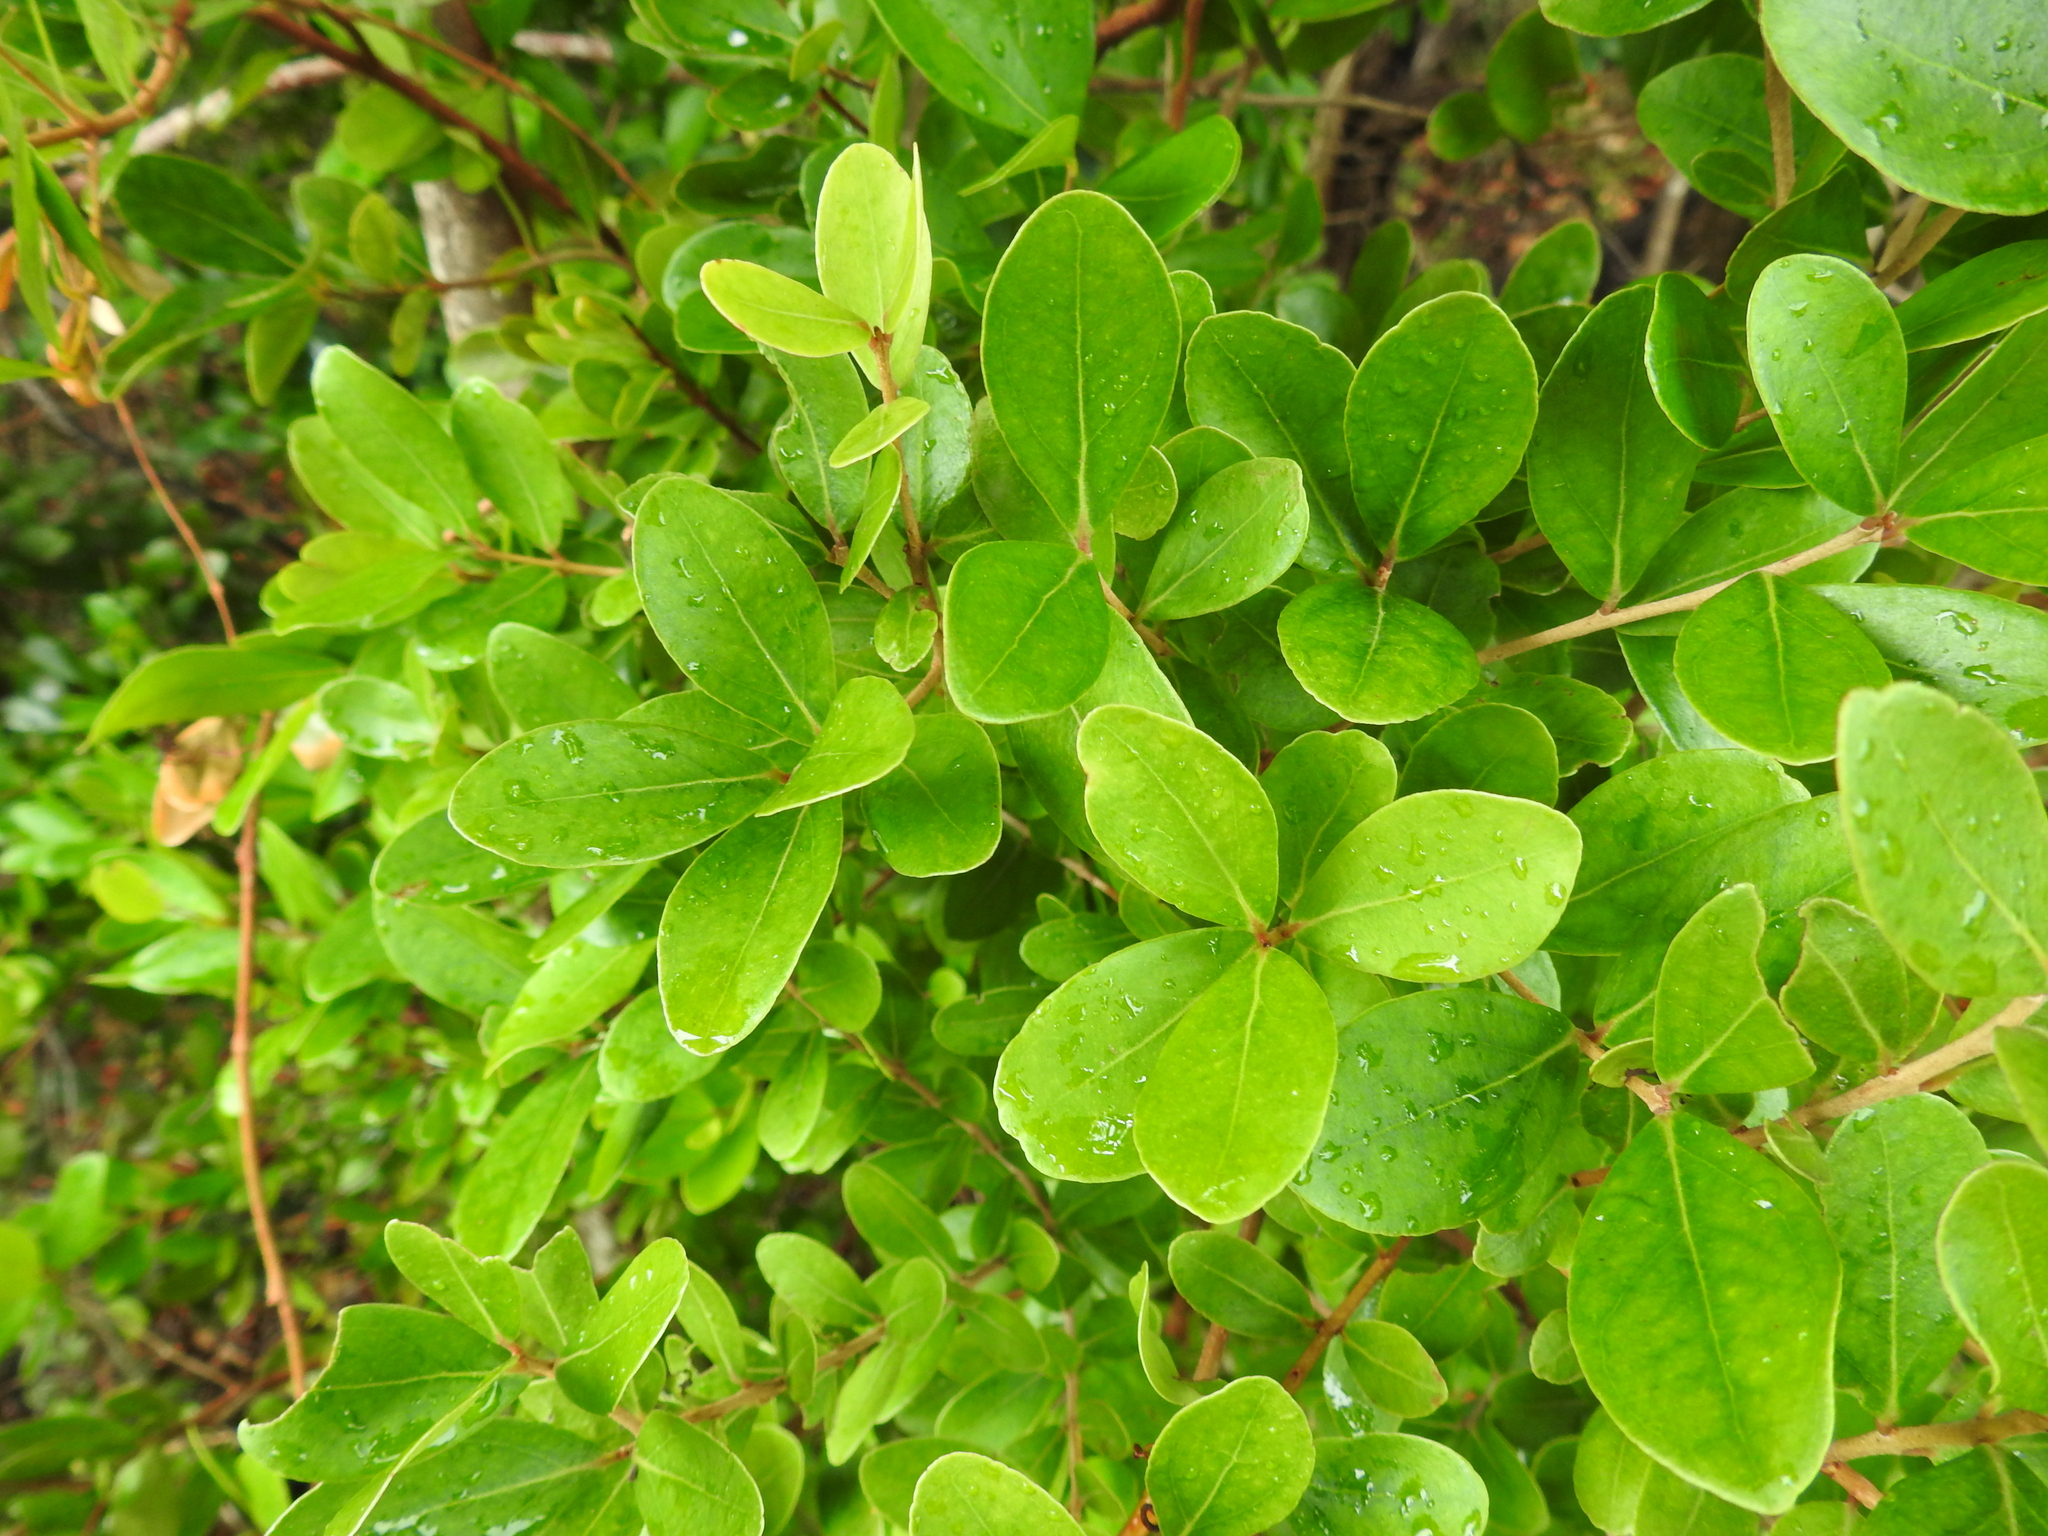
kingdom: Plantae
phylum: Tracheophyta
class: Magnoliopsida
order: Myrtales
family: Myrtaceae
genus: Eugenia
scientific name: Eugenia foetida
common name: White wattling
